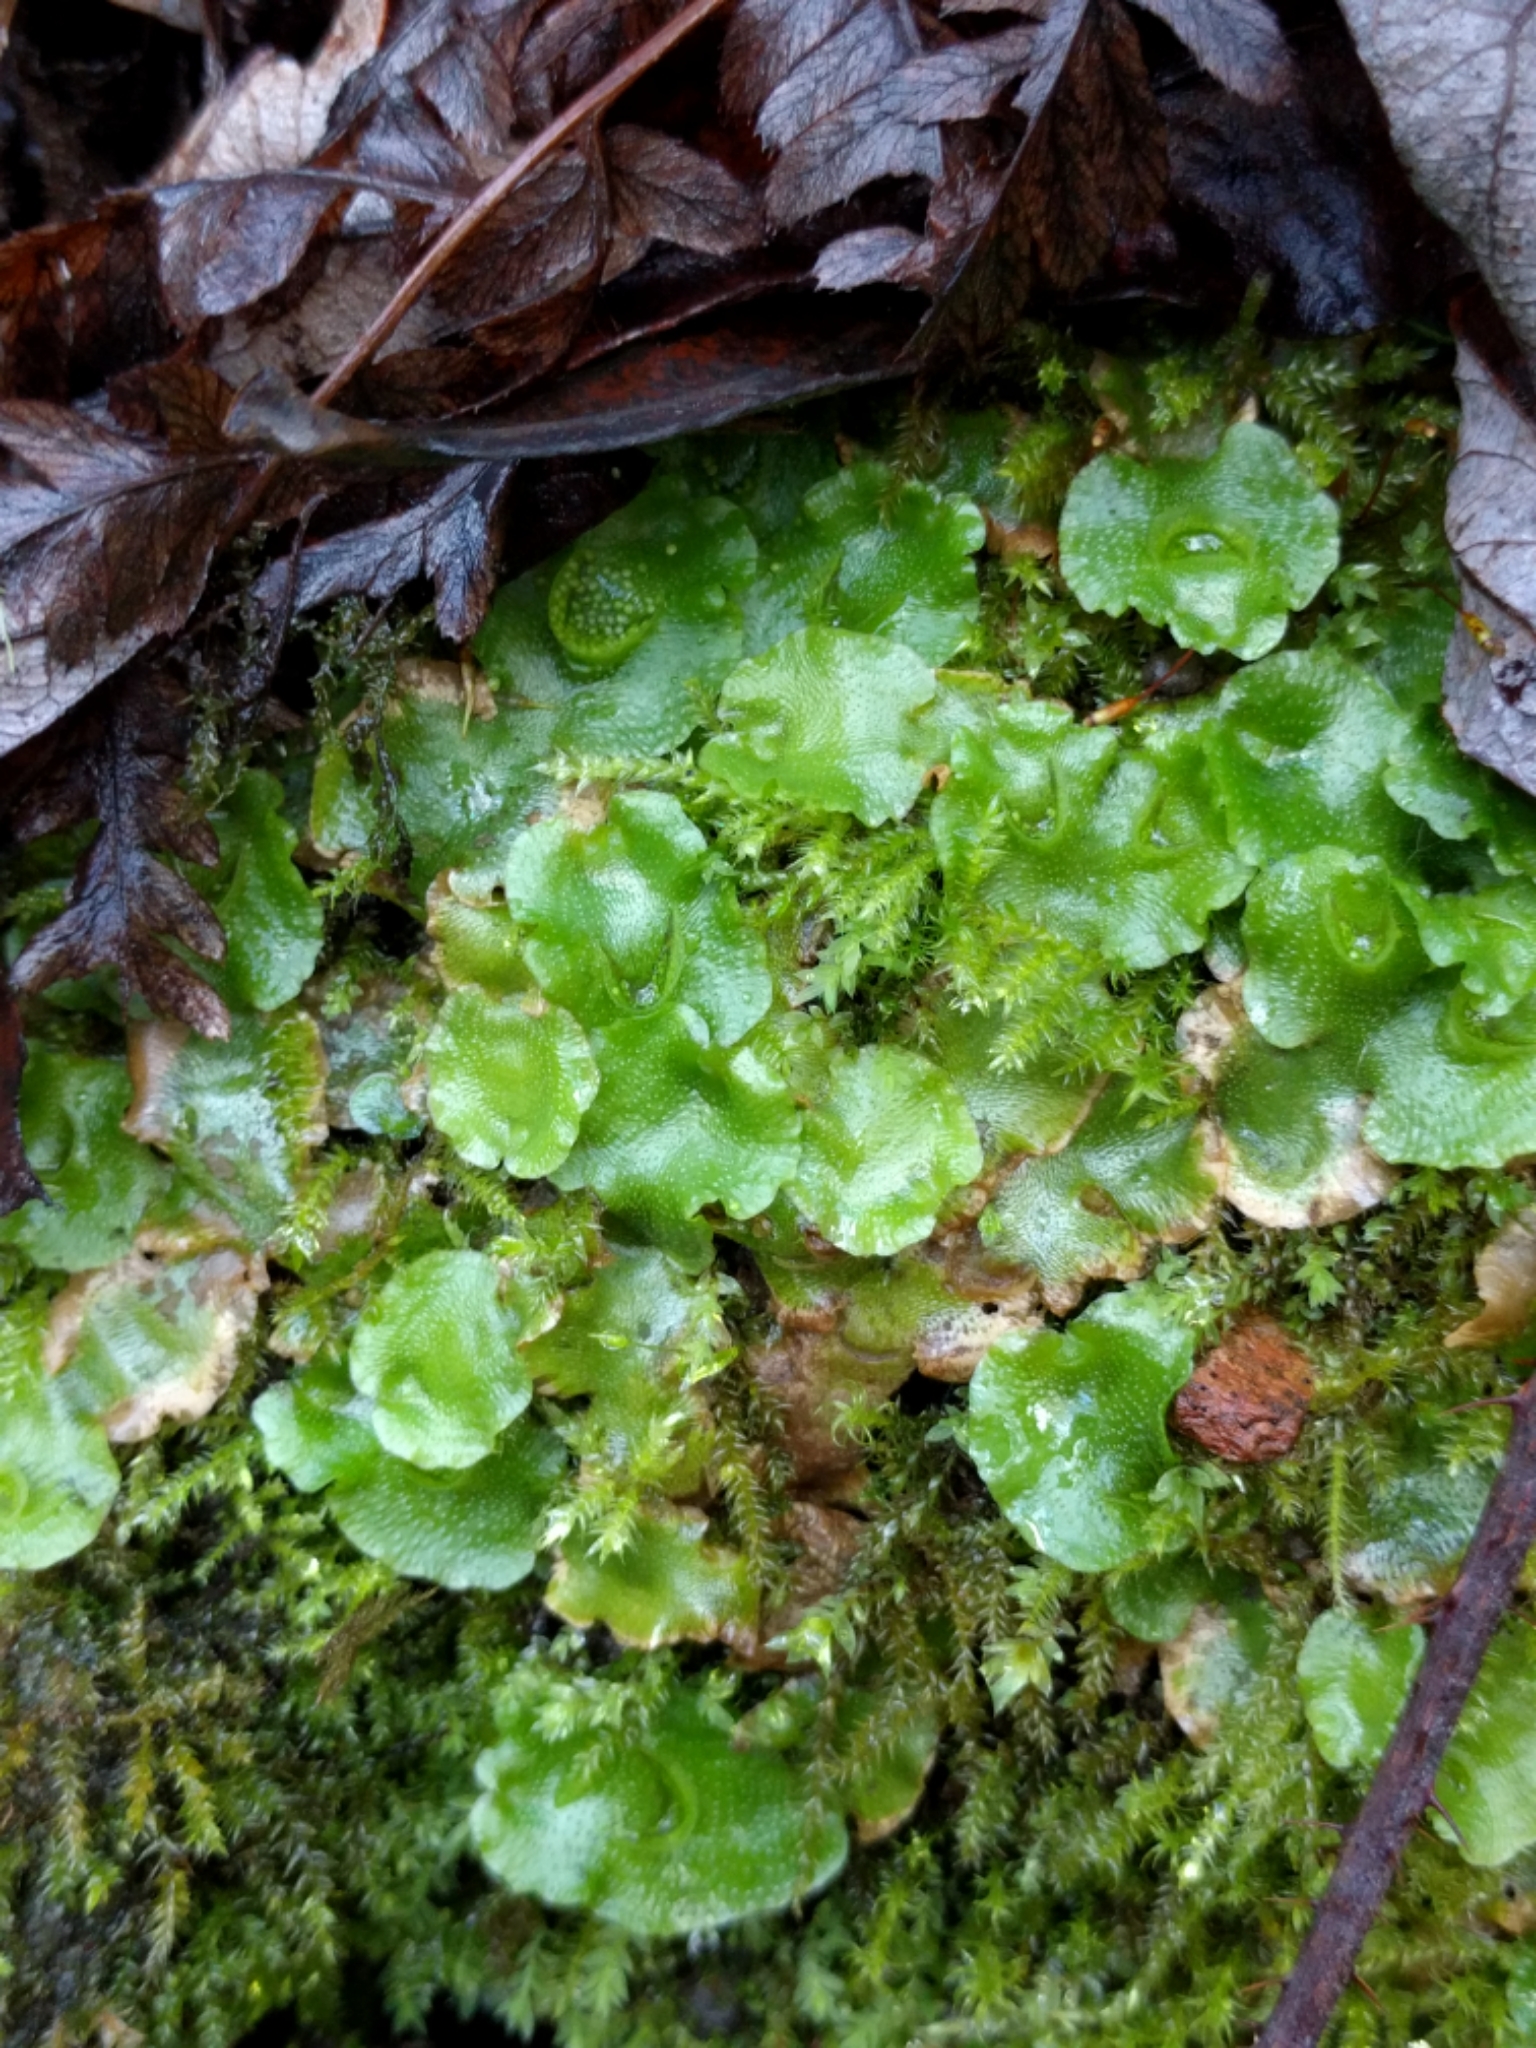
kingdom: Plantae
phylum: Marchantiophyta
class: Marchantiopsida
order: Lunulariales
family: Lunulariaceae
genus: Lunularia
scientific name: Lunularia cruciata
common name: Crescent-cup liverwort
